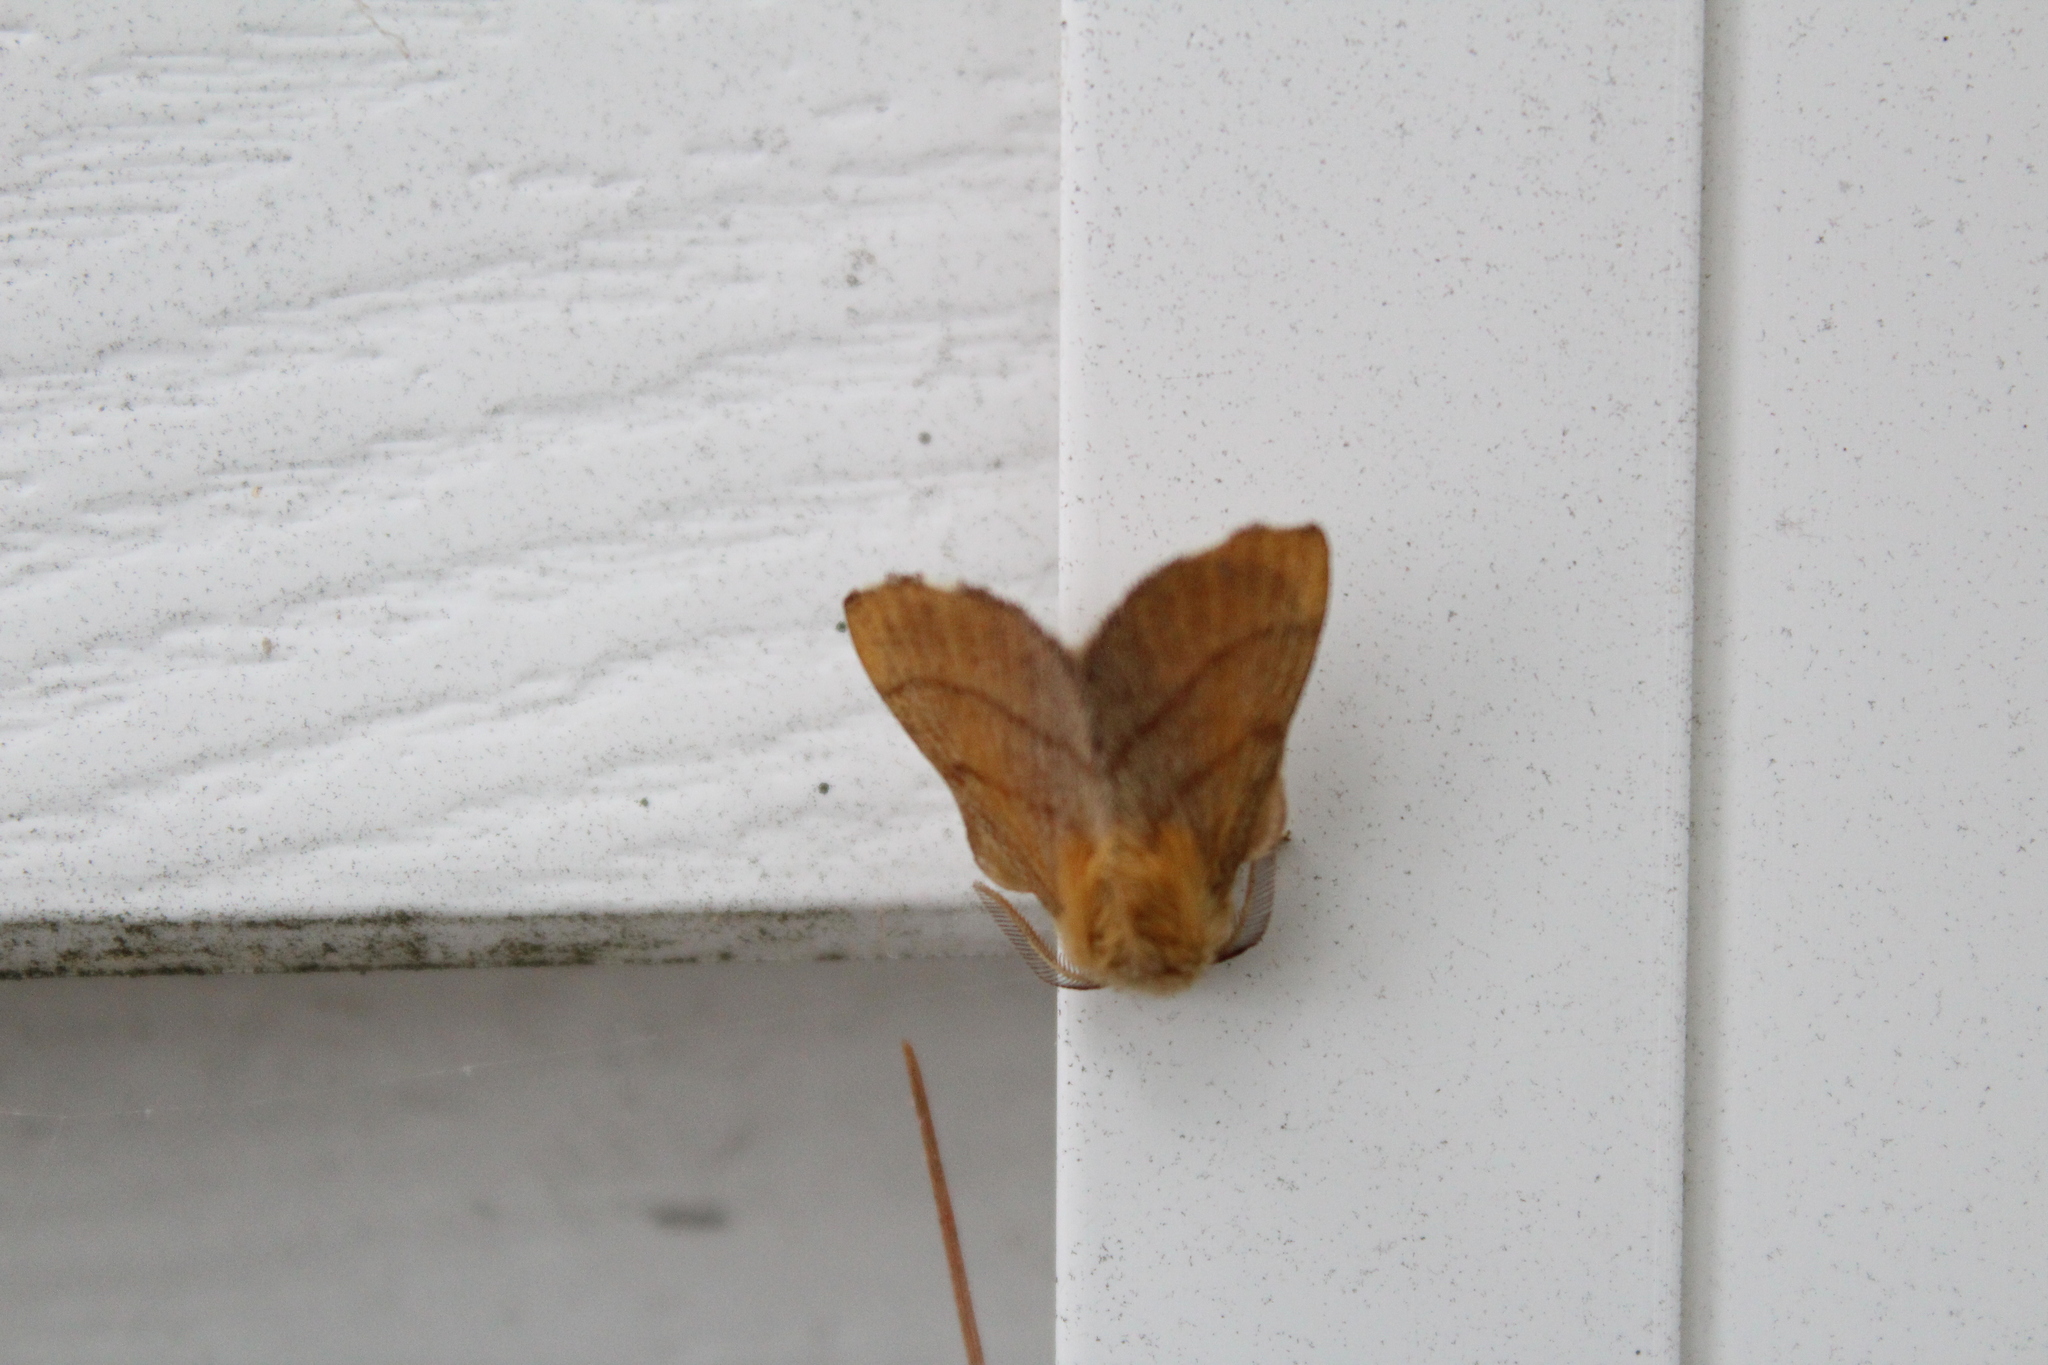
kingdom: Animalia
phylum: Arthropoda
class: Insecta
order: Lepidoptera
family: Lasiocampidae
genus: Malacosoma
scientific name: Malacosoma disstria
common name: Forest tent caterpillar
